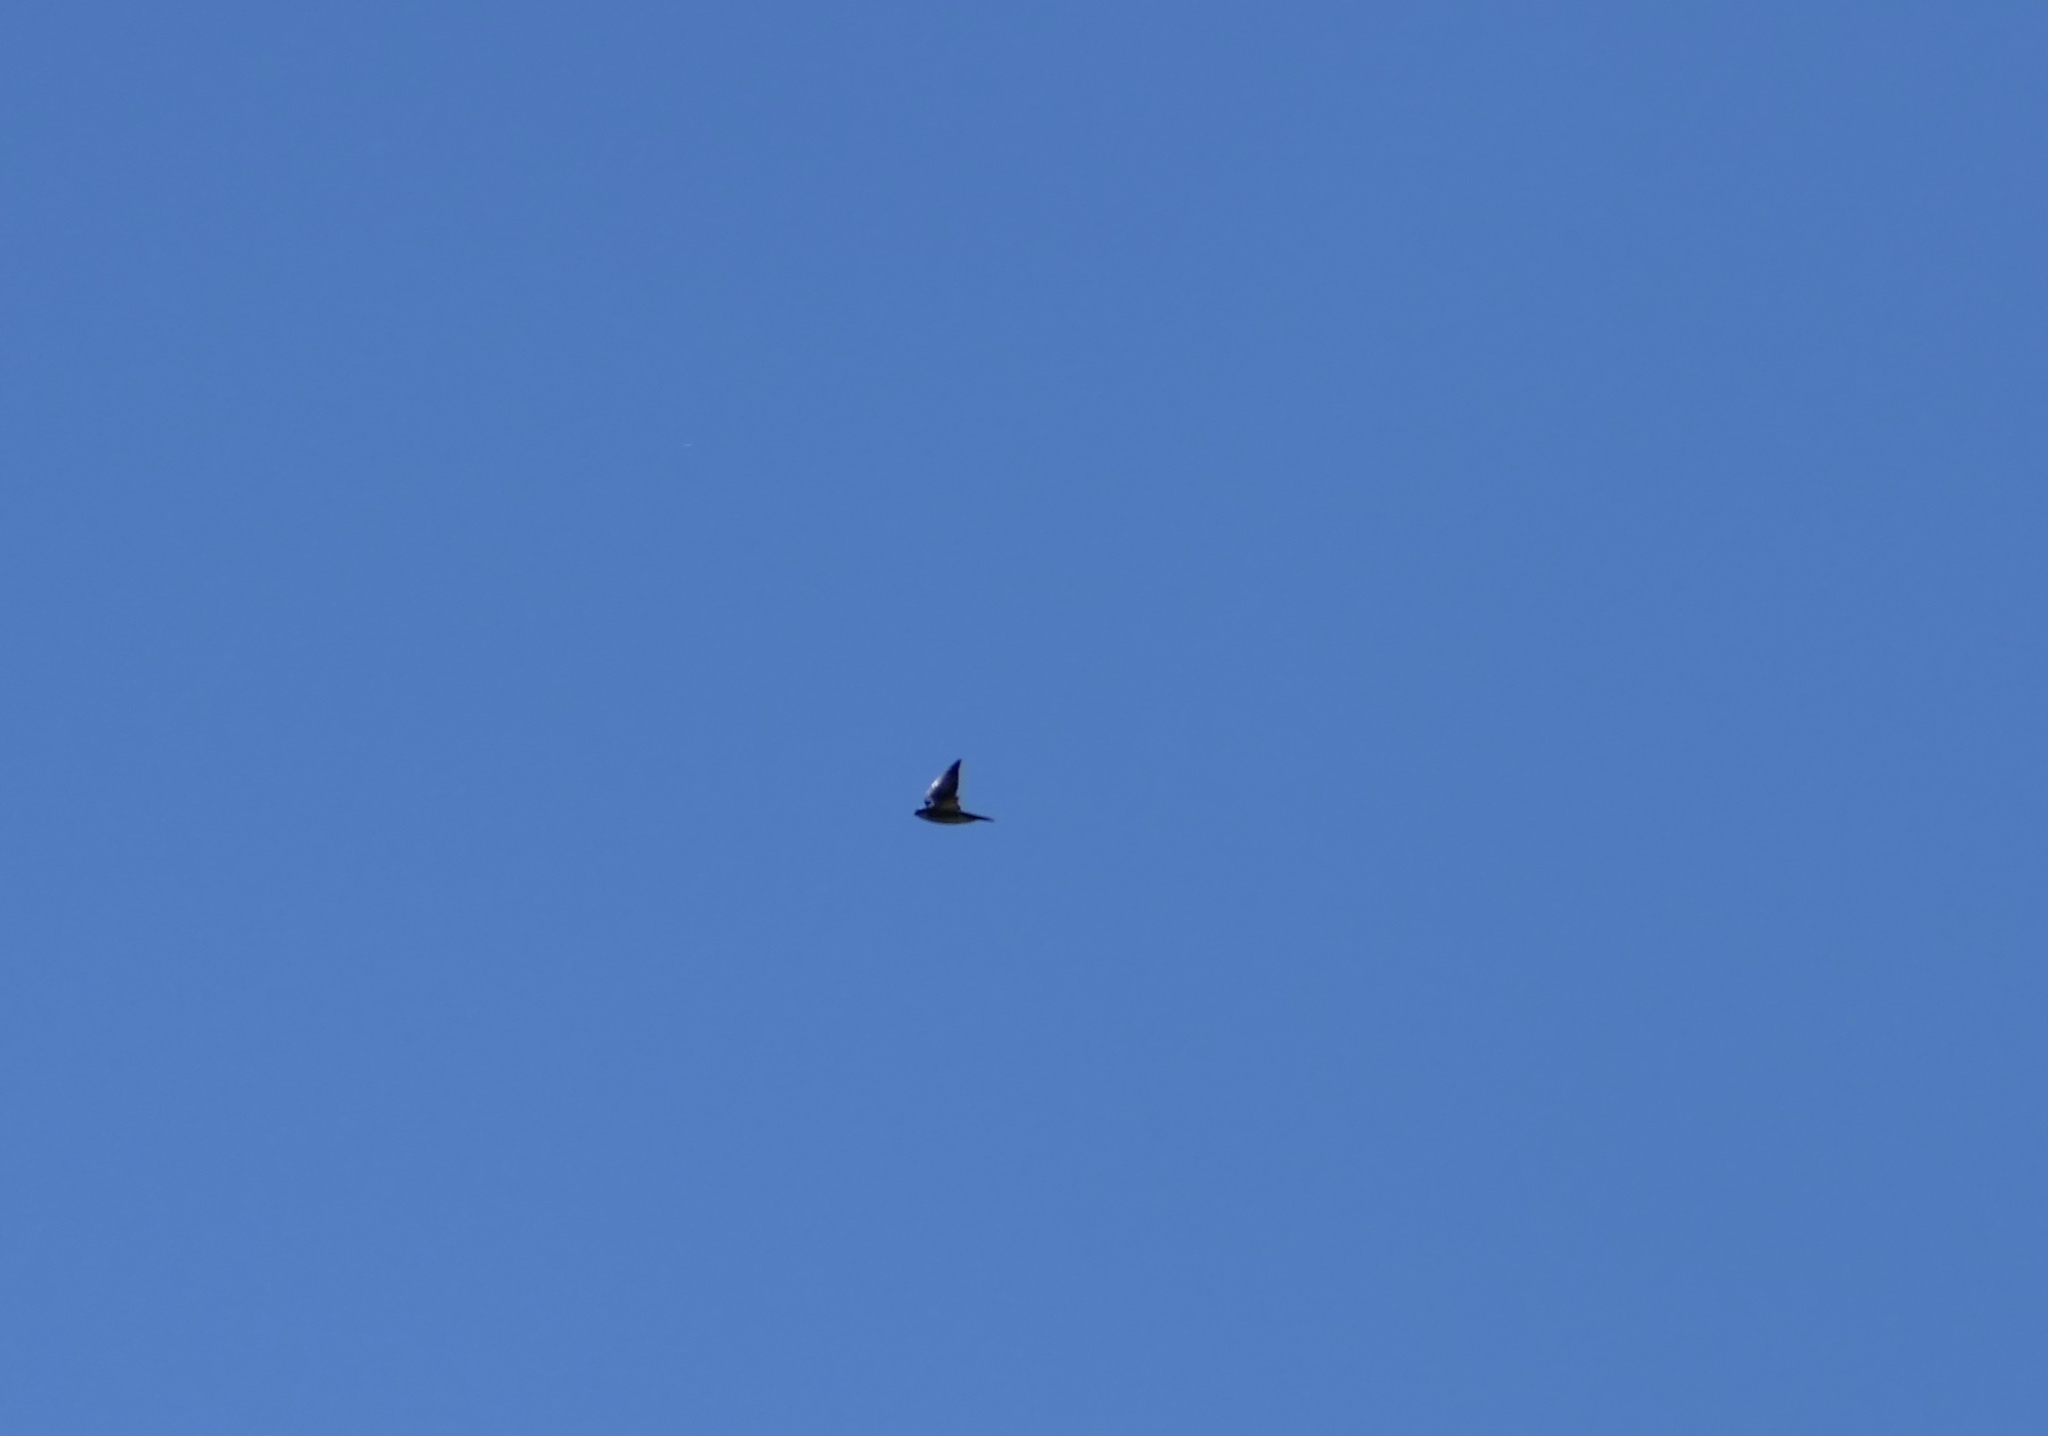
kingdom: Animalia
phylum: Chordata
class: Aves
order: Passeriformes
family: Hirundinidae
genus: Tachycineta
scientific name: Tachycineta bicolor
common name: Tree swallow
